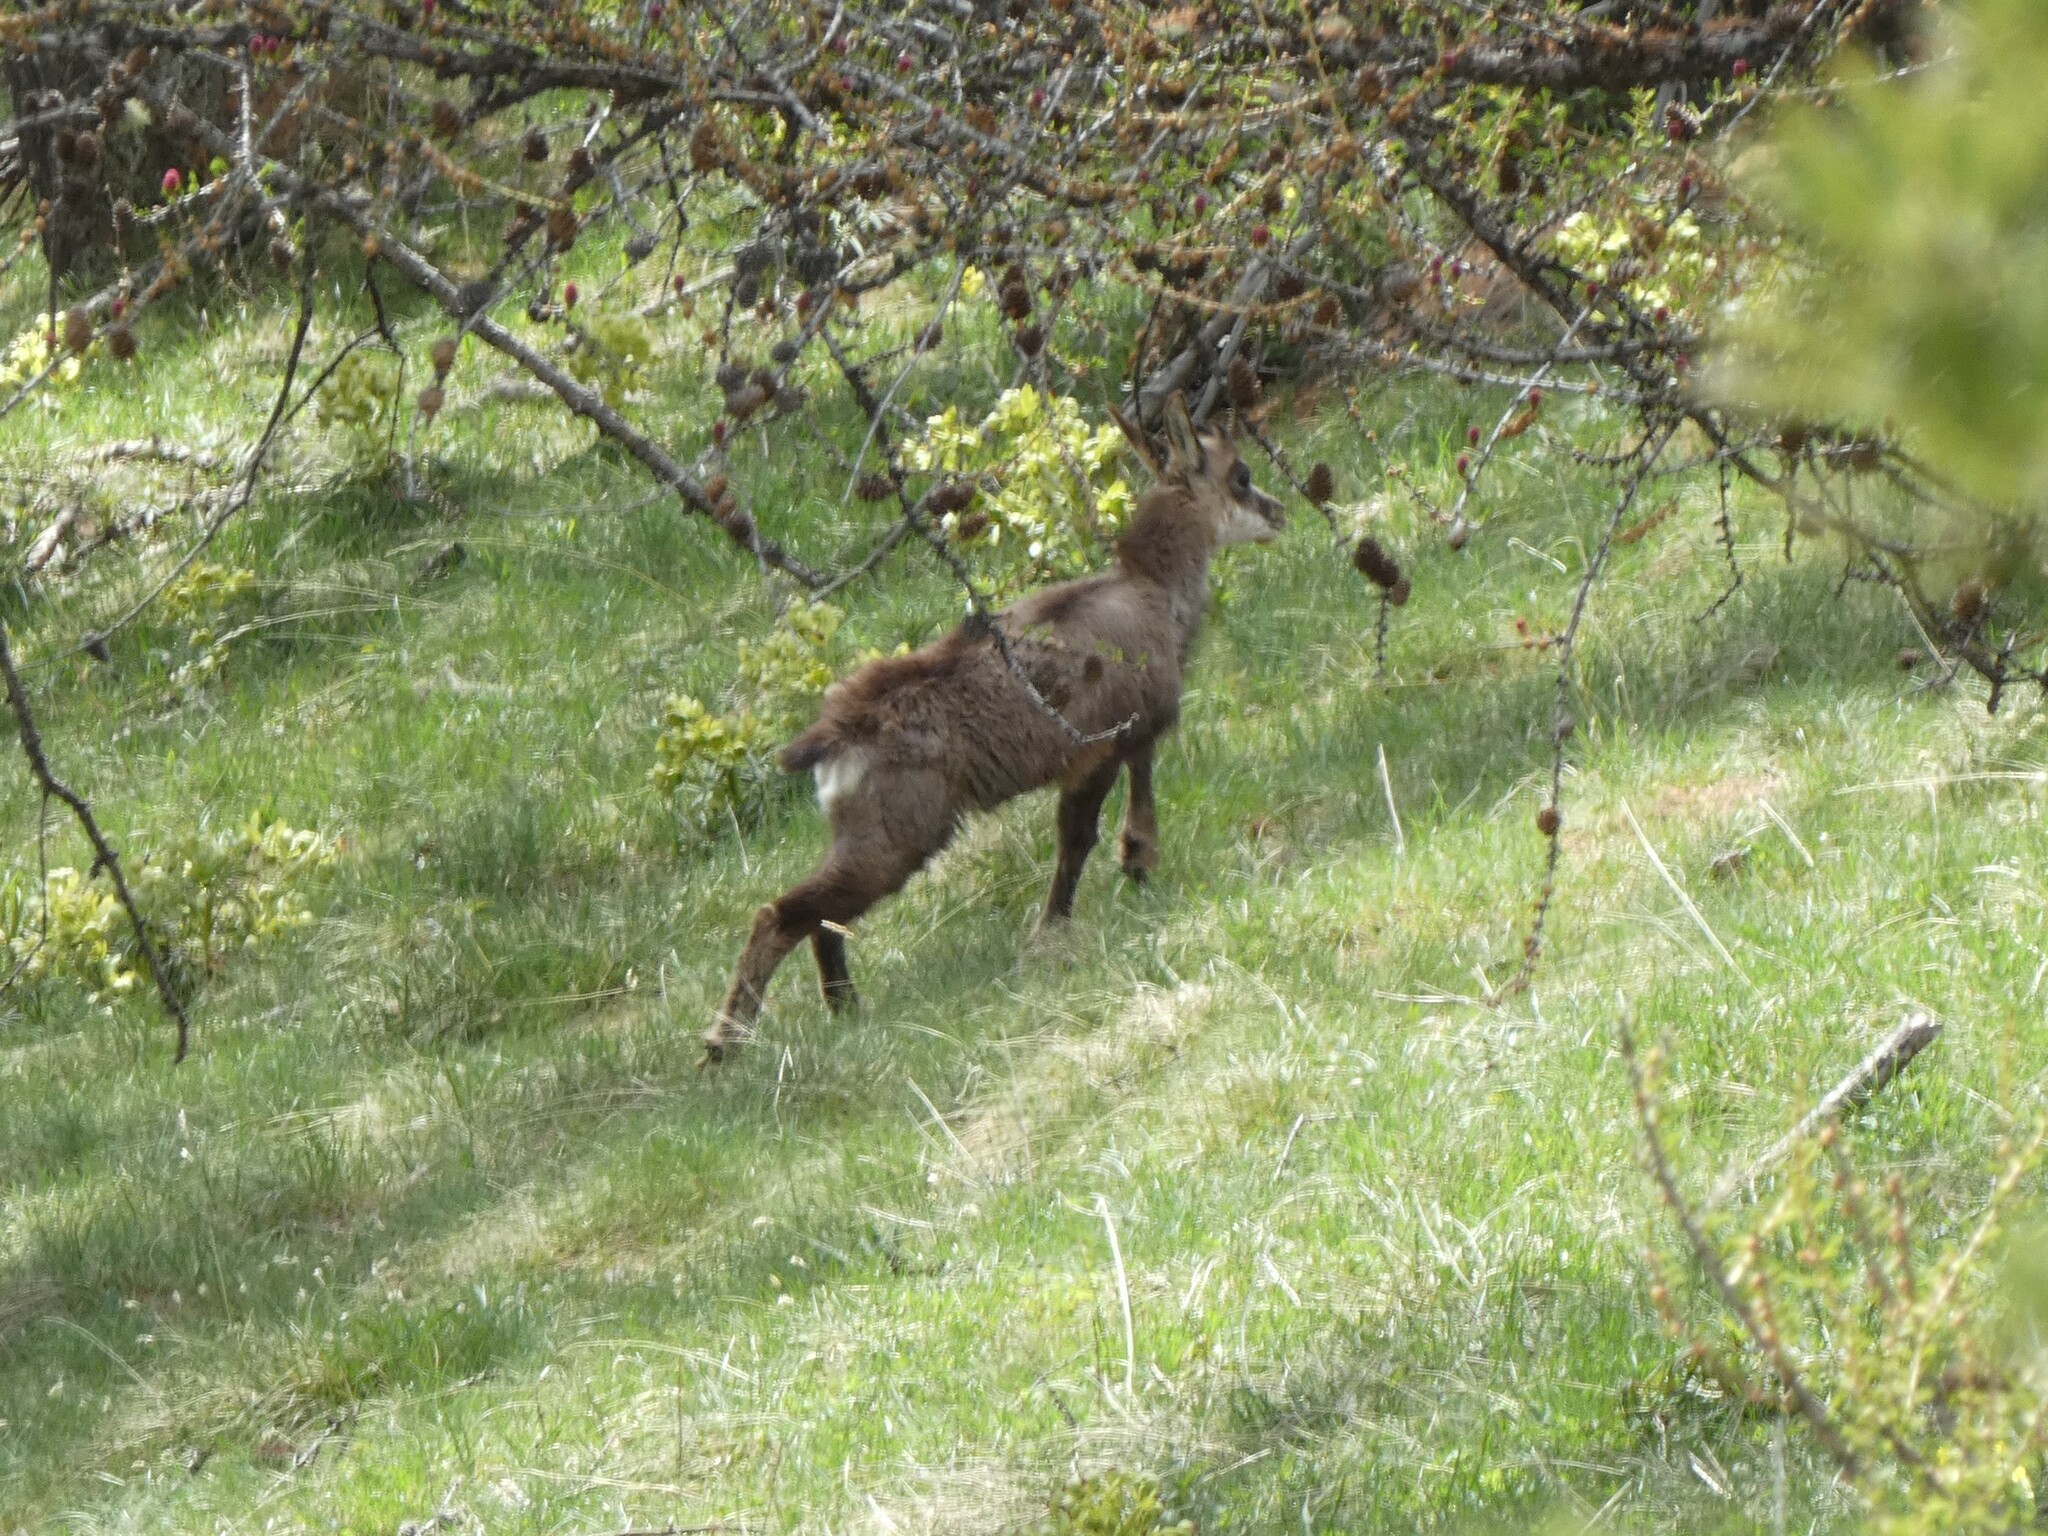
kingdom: Animalia
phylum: Chordata
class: Mammalia
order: Artiodactyla
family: Bovidae
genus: Rupicapra
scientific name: Rupicapra rupicapra
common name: Chamois
